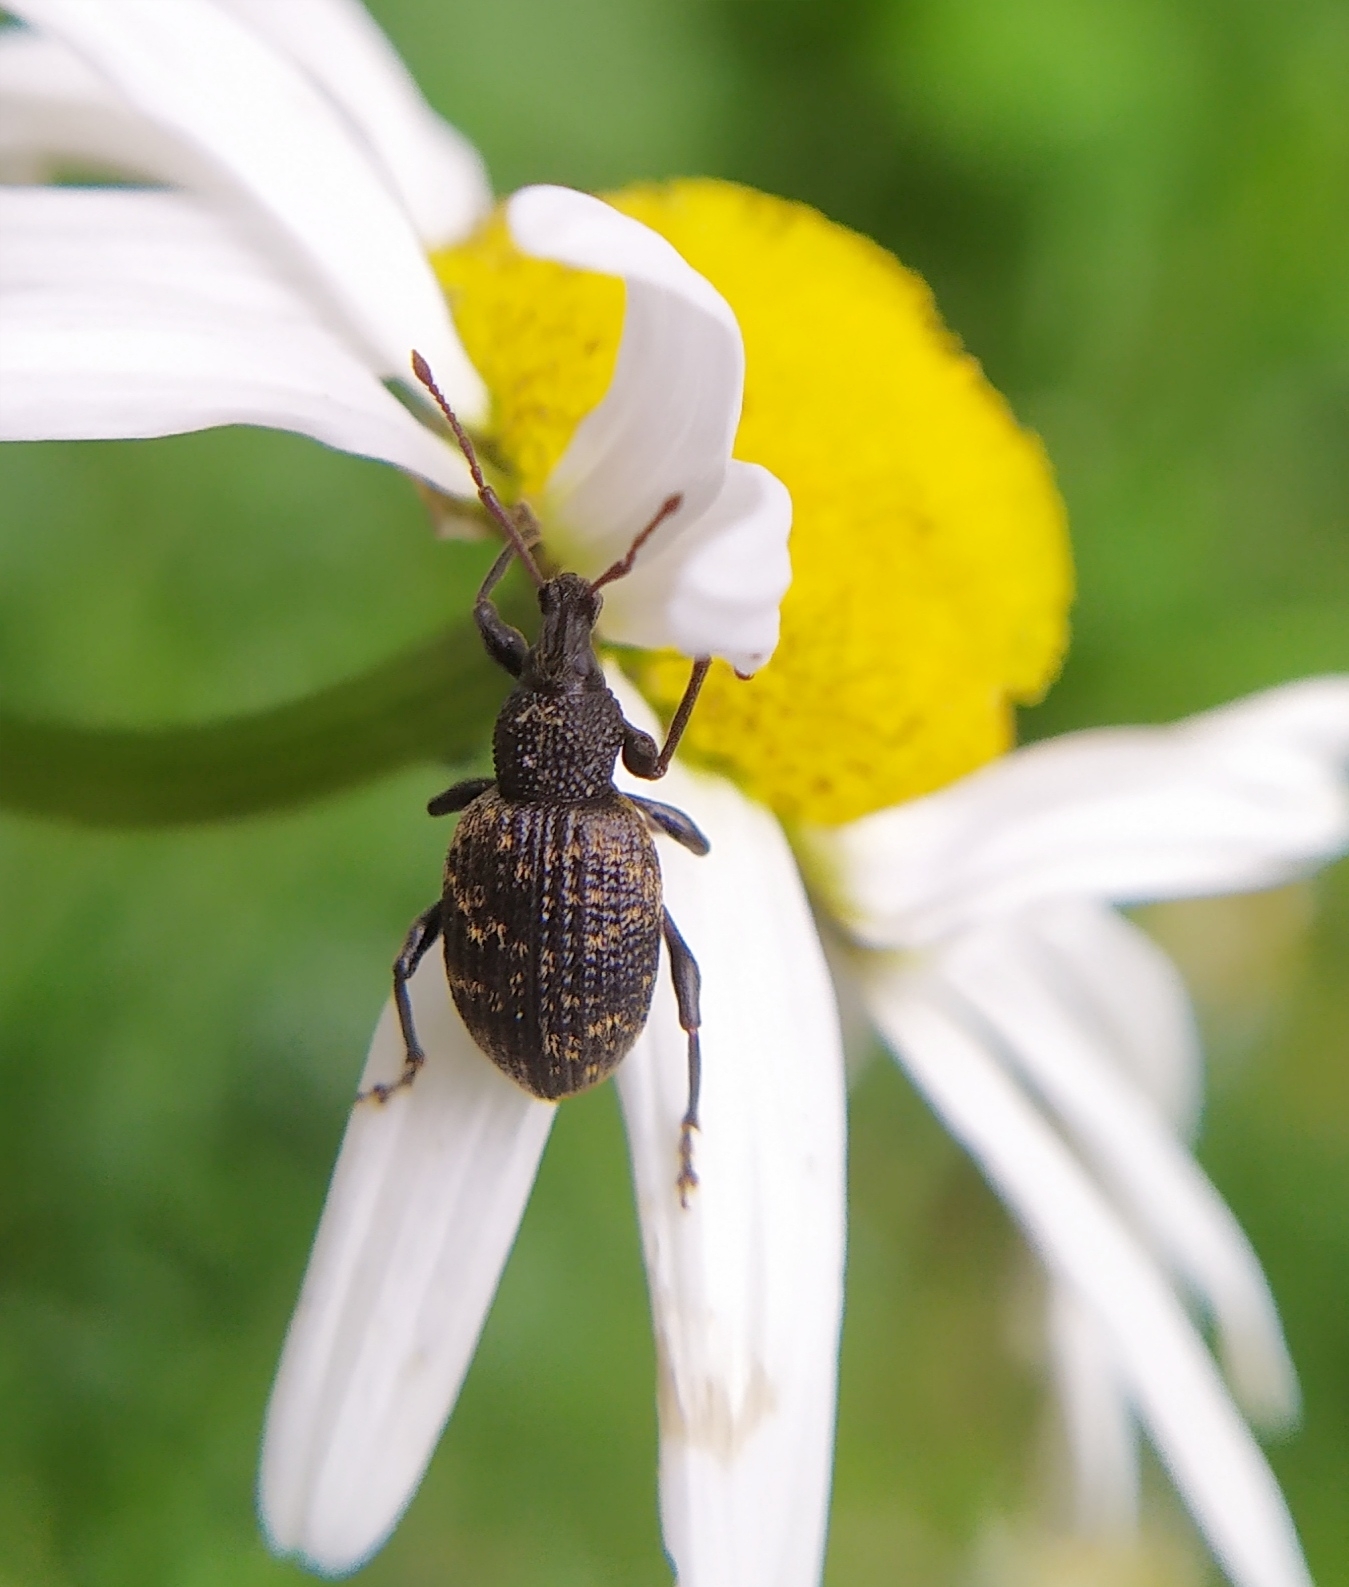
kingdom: Animalia
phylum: Arthropoda
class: Insecta
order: Coleoptera
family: Curculionidae
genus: Otiorhynchus
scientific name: Otiorhynchus sulcatus
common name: Black vine weevil
